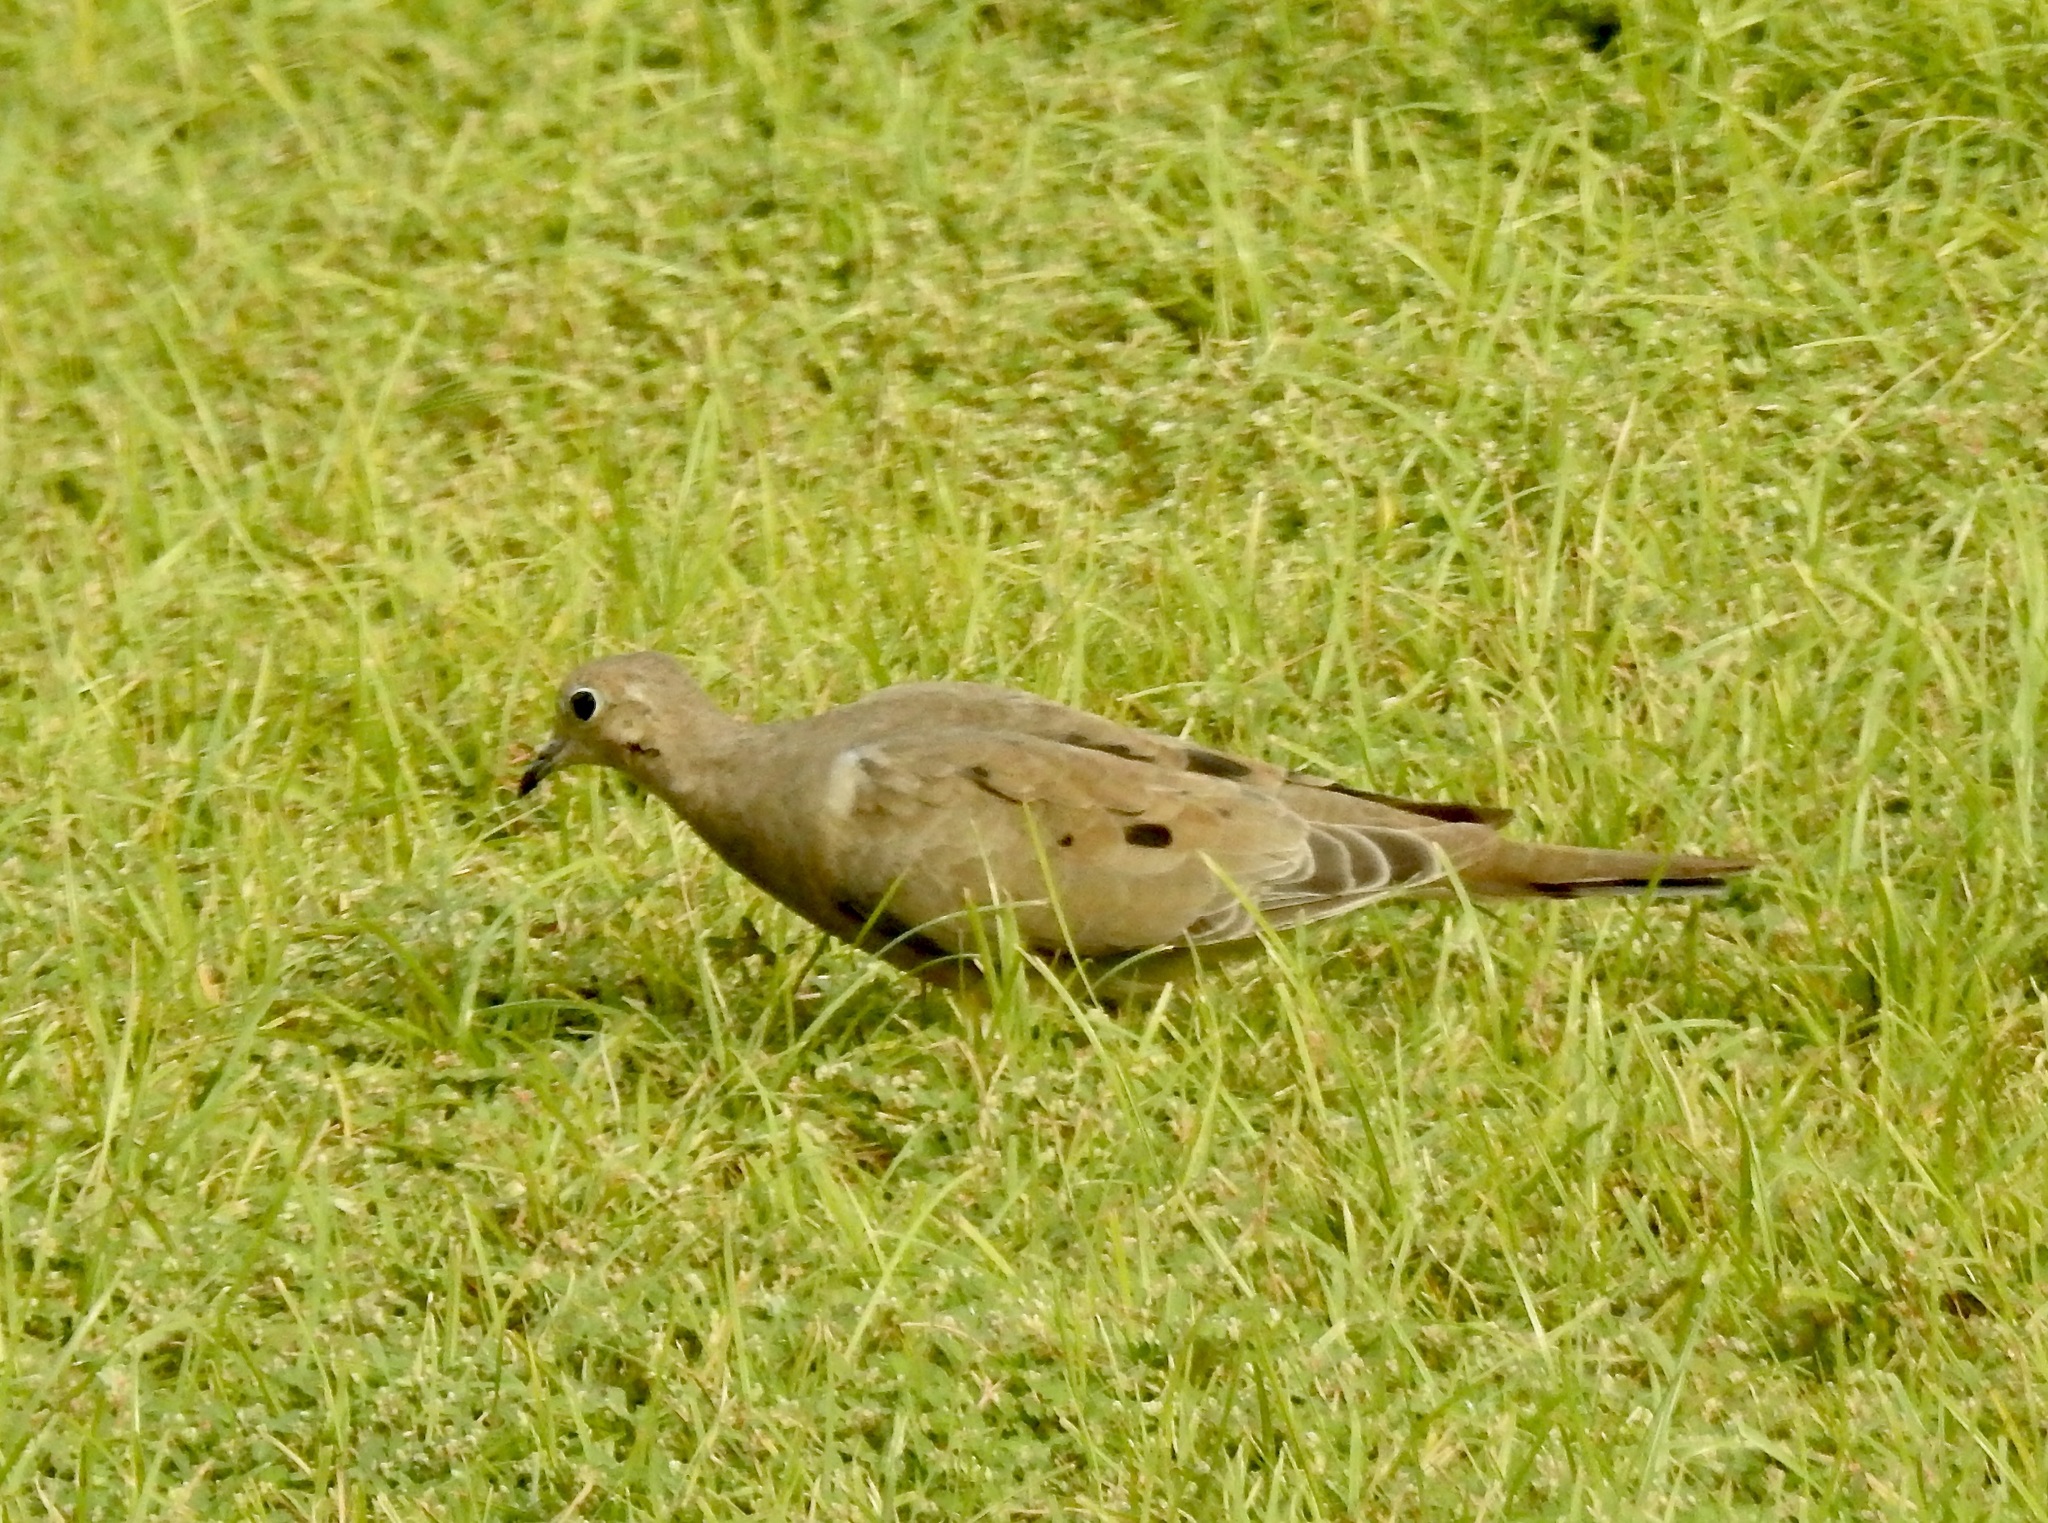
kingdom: Animalia
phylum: Chordata
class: Aves
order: Columbiformes
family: Columbidae
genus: Zenaida
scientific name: Zenaida macroura
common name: Mourning dove
